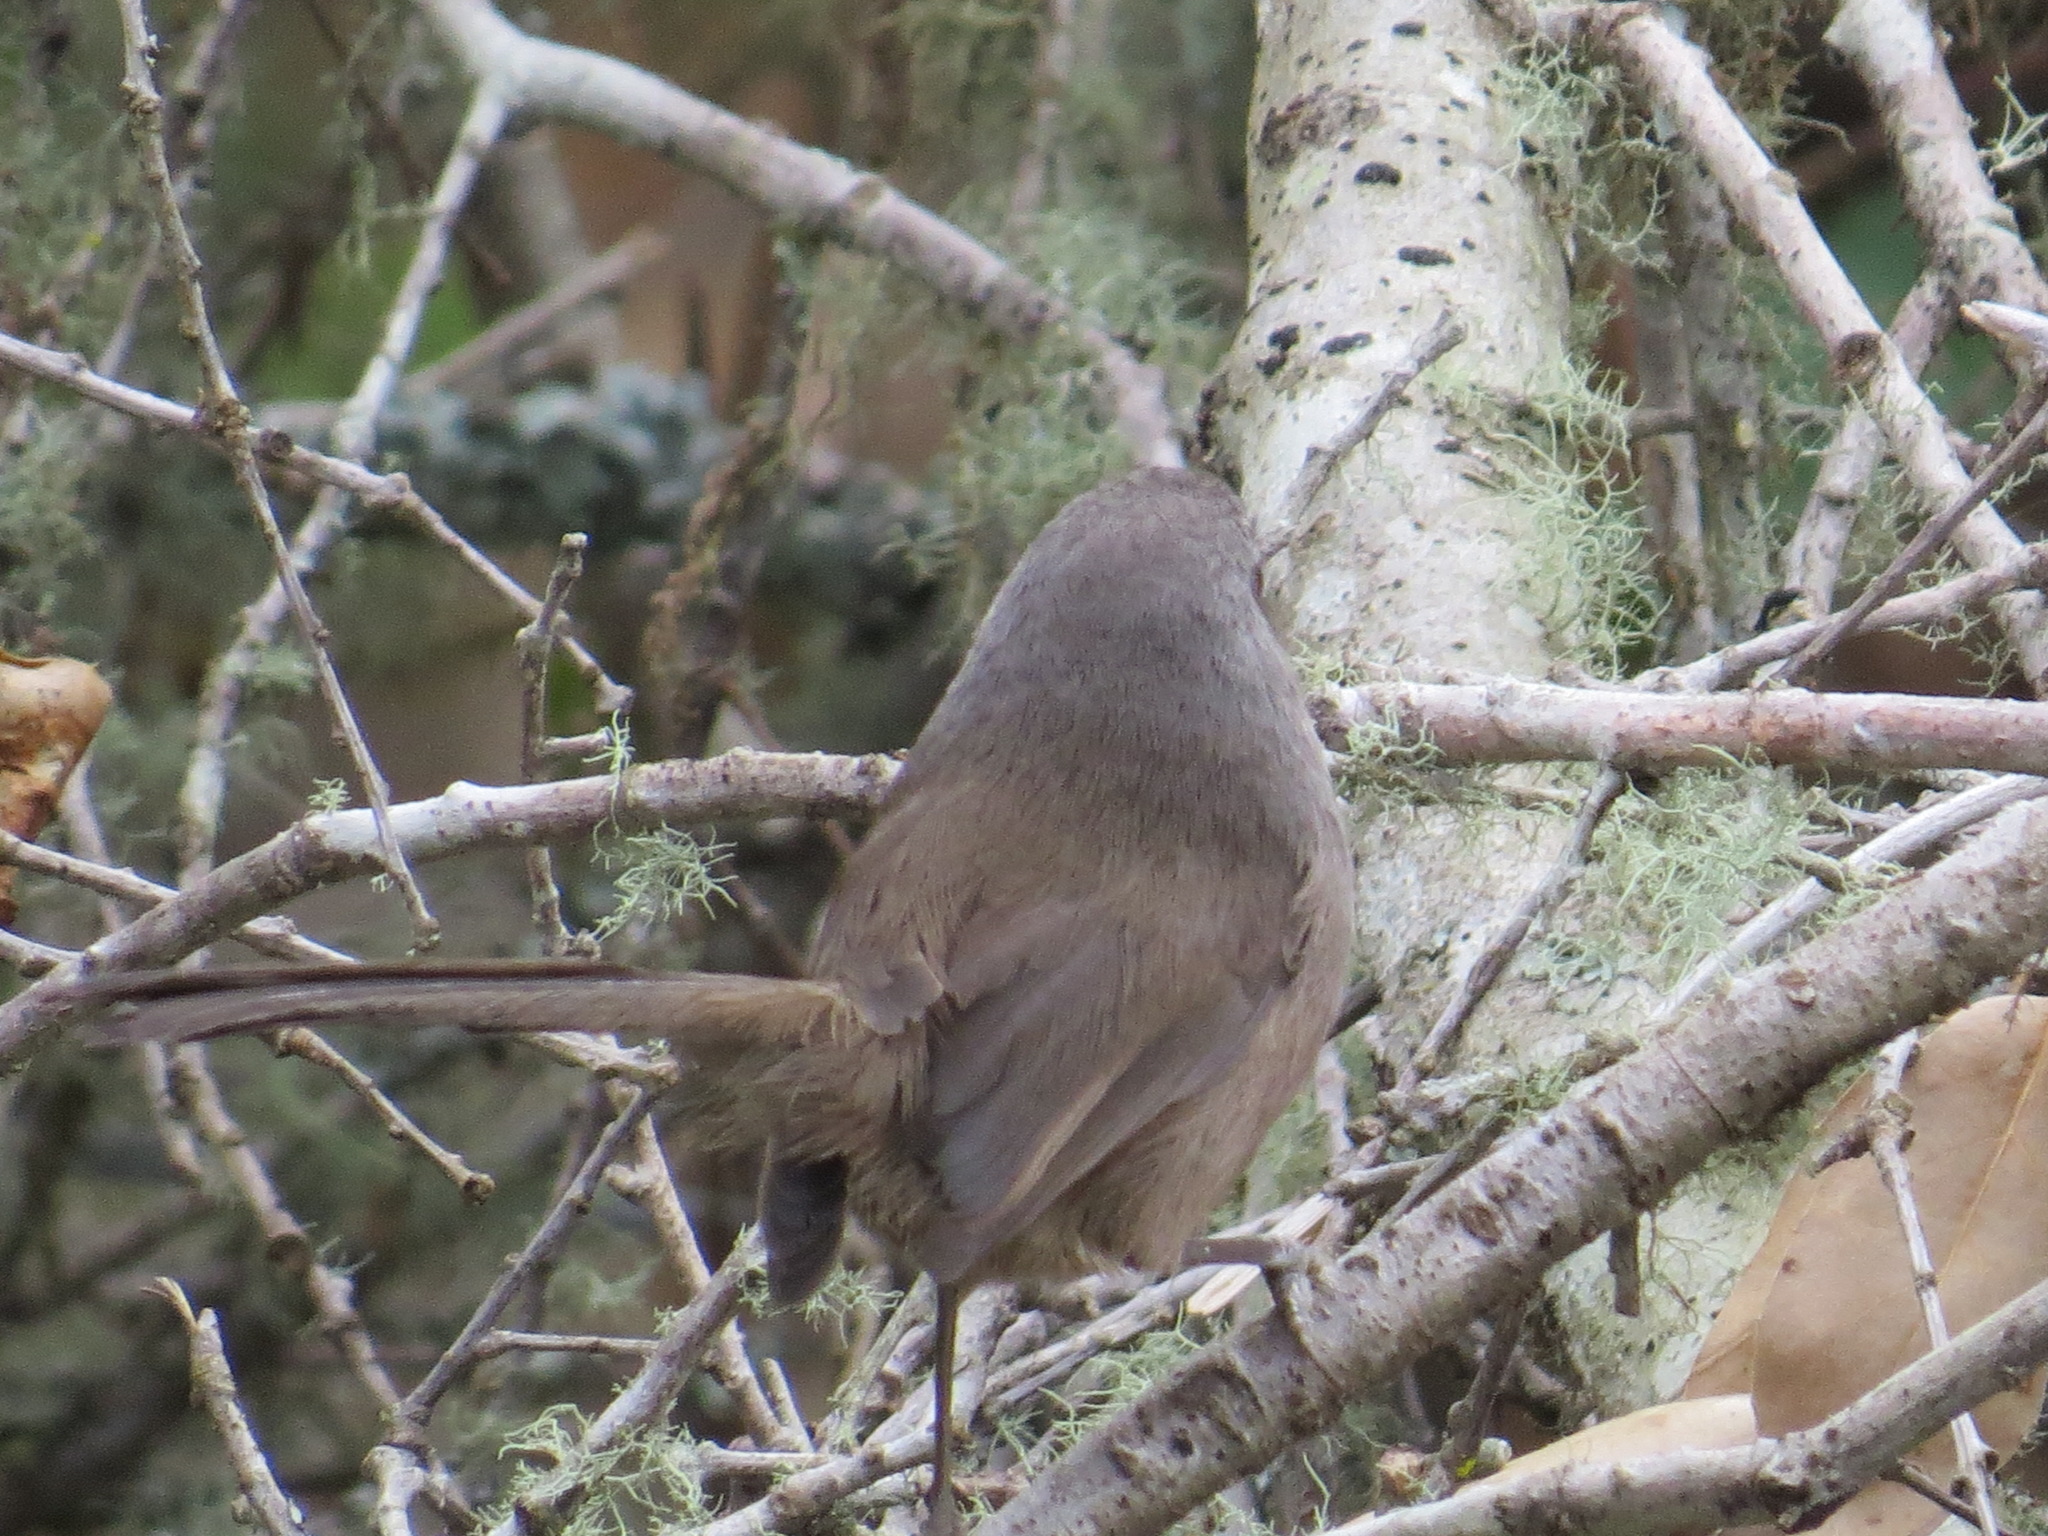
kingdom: Animalia
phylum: Chordata
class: Aves
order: Passeriformes
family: Sylviidae
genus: Chamaea
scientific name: Chamaea fasciata
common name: Wrentit
